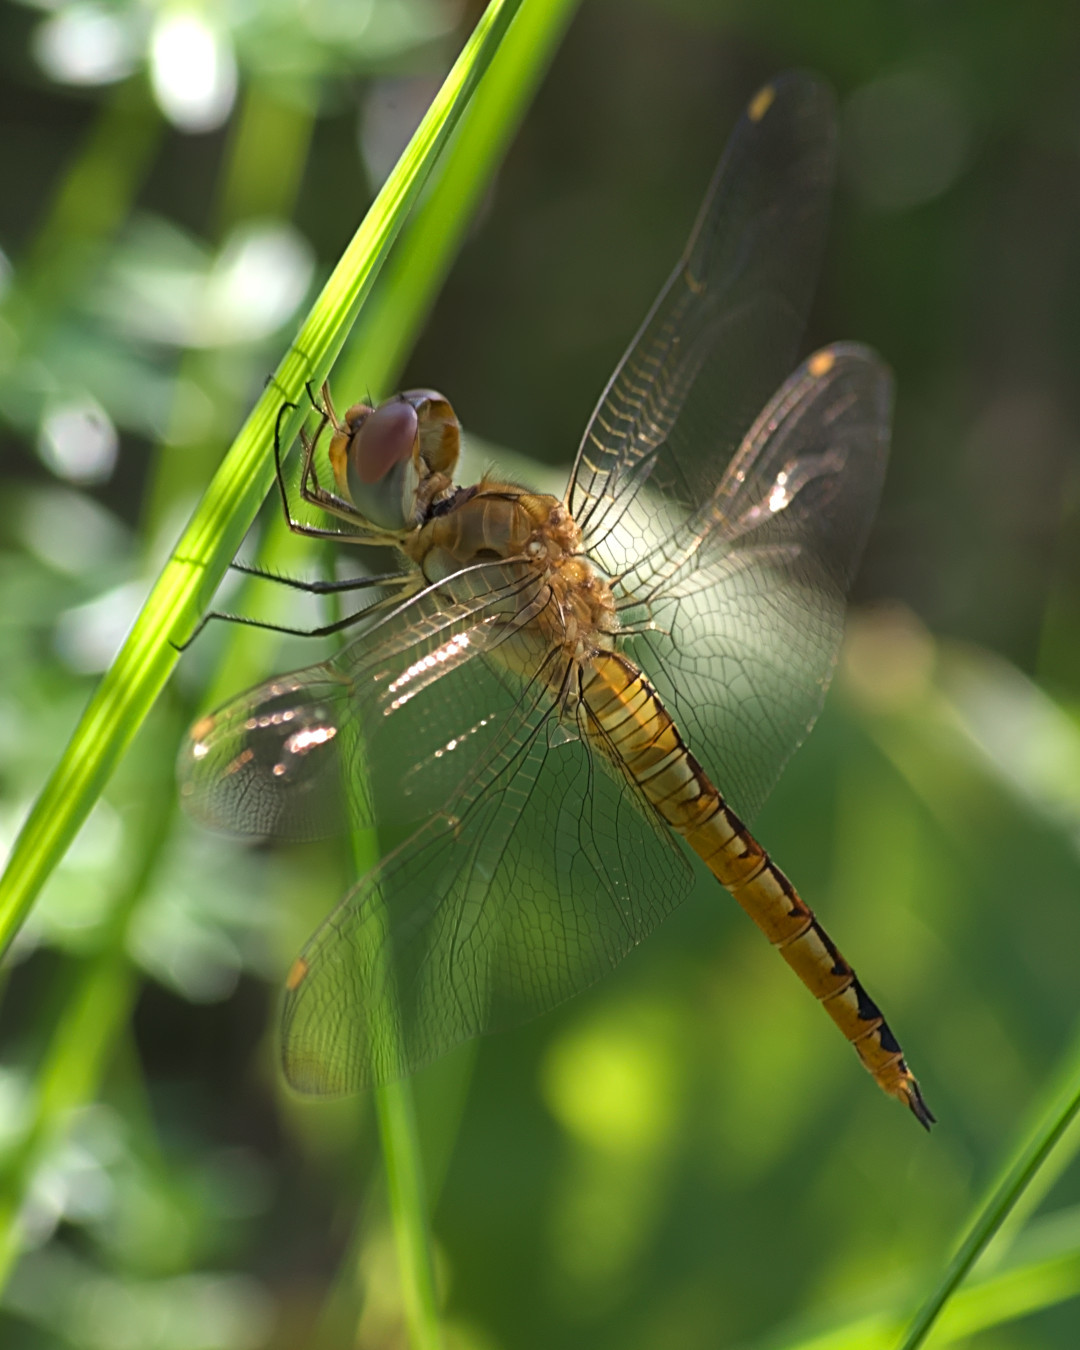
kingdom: Animalia
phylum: Arthropoda
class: Insecta
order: Odonata
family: Libellulidae
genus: Pantala
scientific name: Pantala flavescens
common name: Wandering glider
